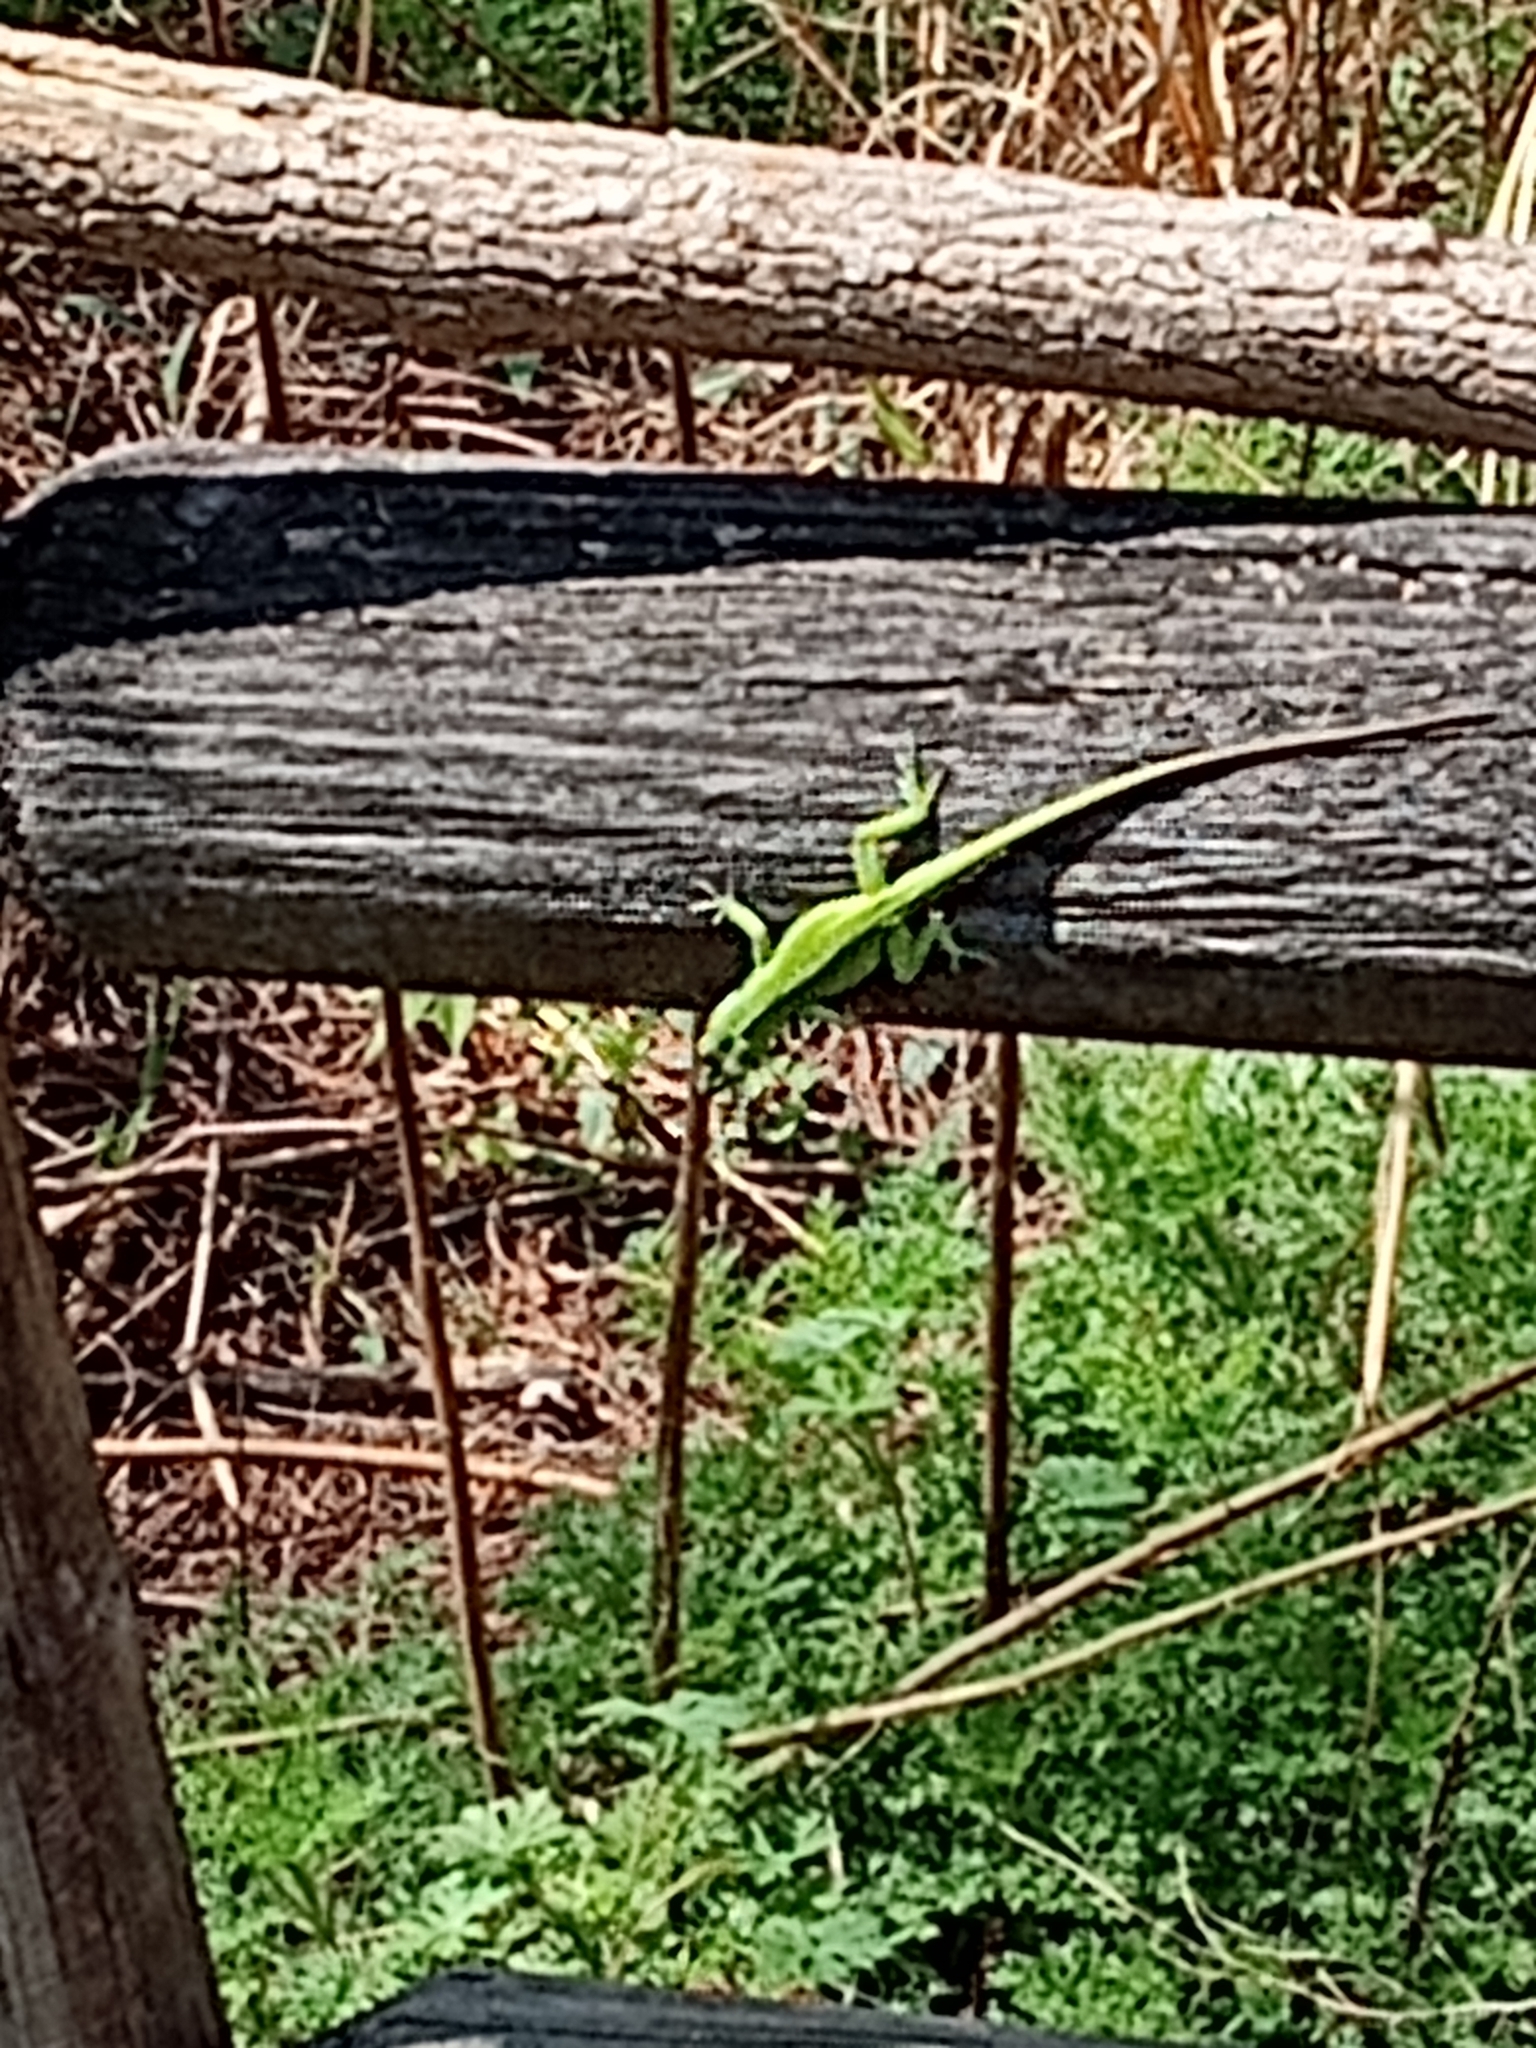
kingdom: Animalia
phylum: Chordata
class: Squamata
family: Dactyloidae
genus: Anolis
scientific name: Anolis carolinensis
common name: Green anole
